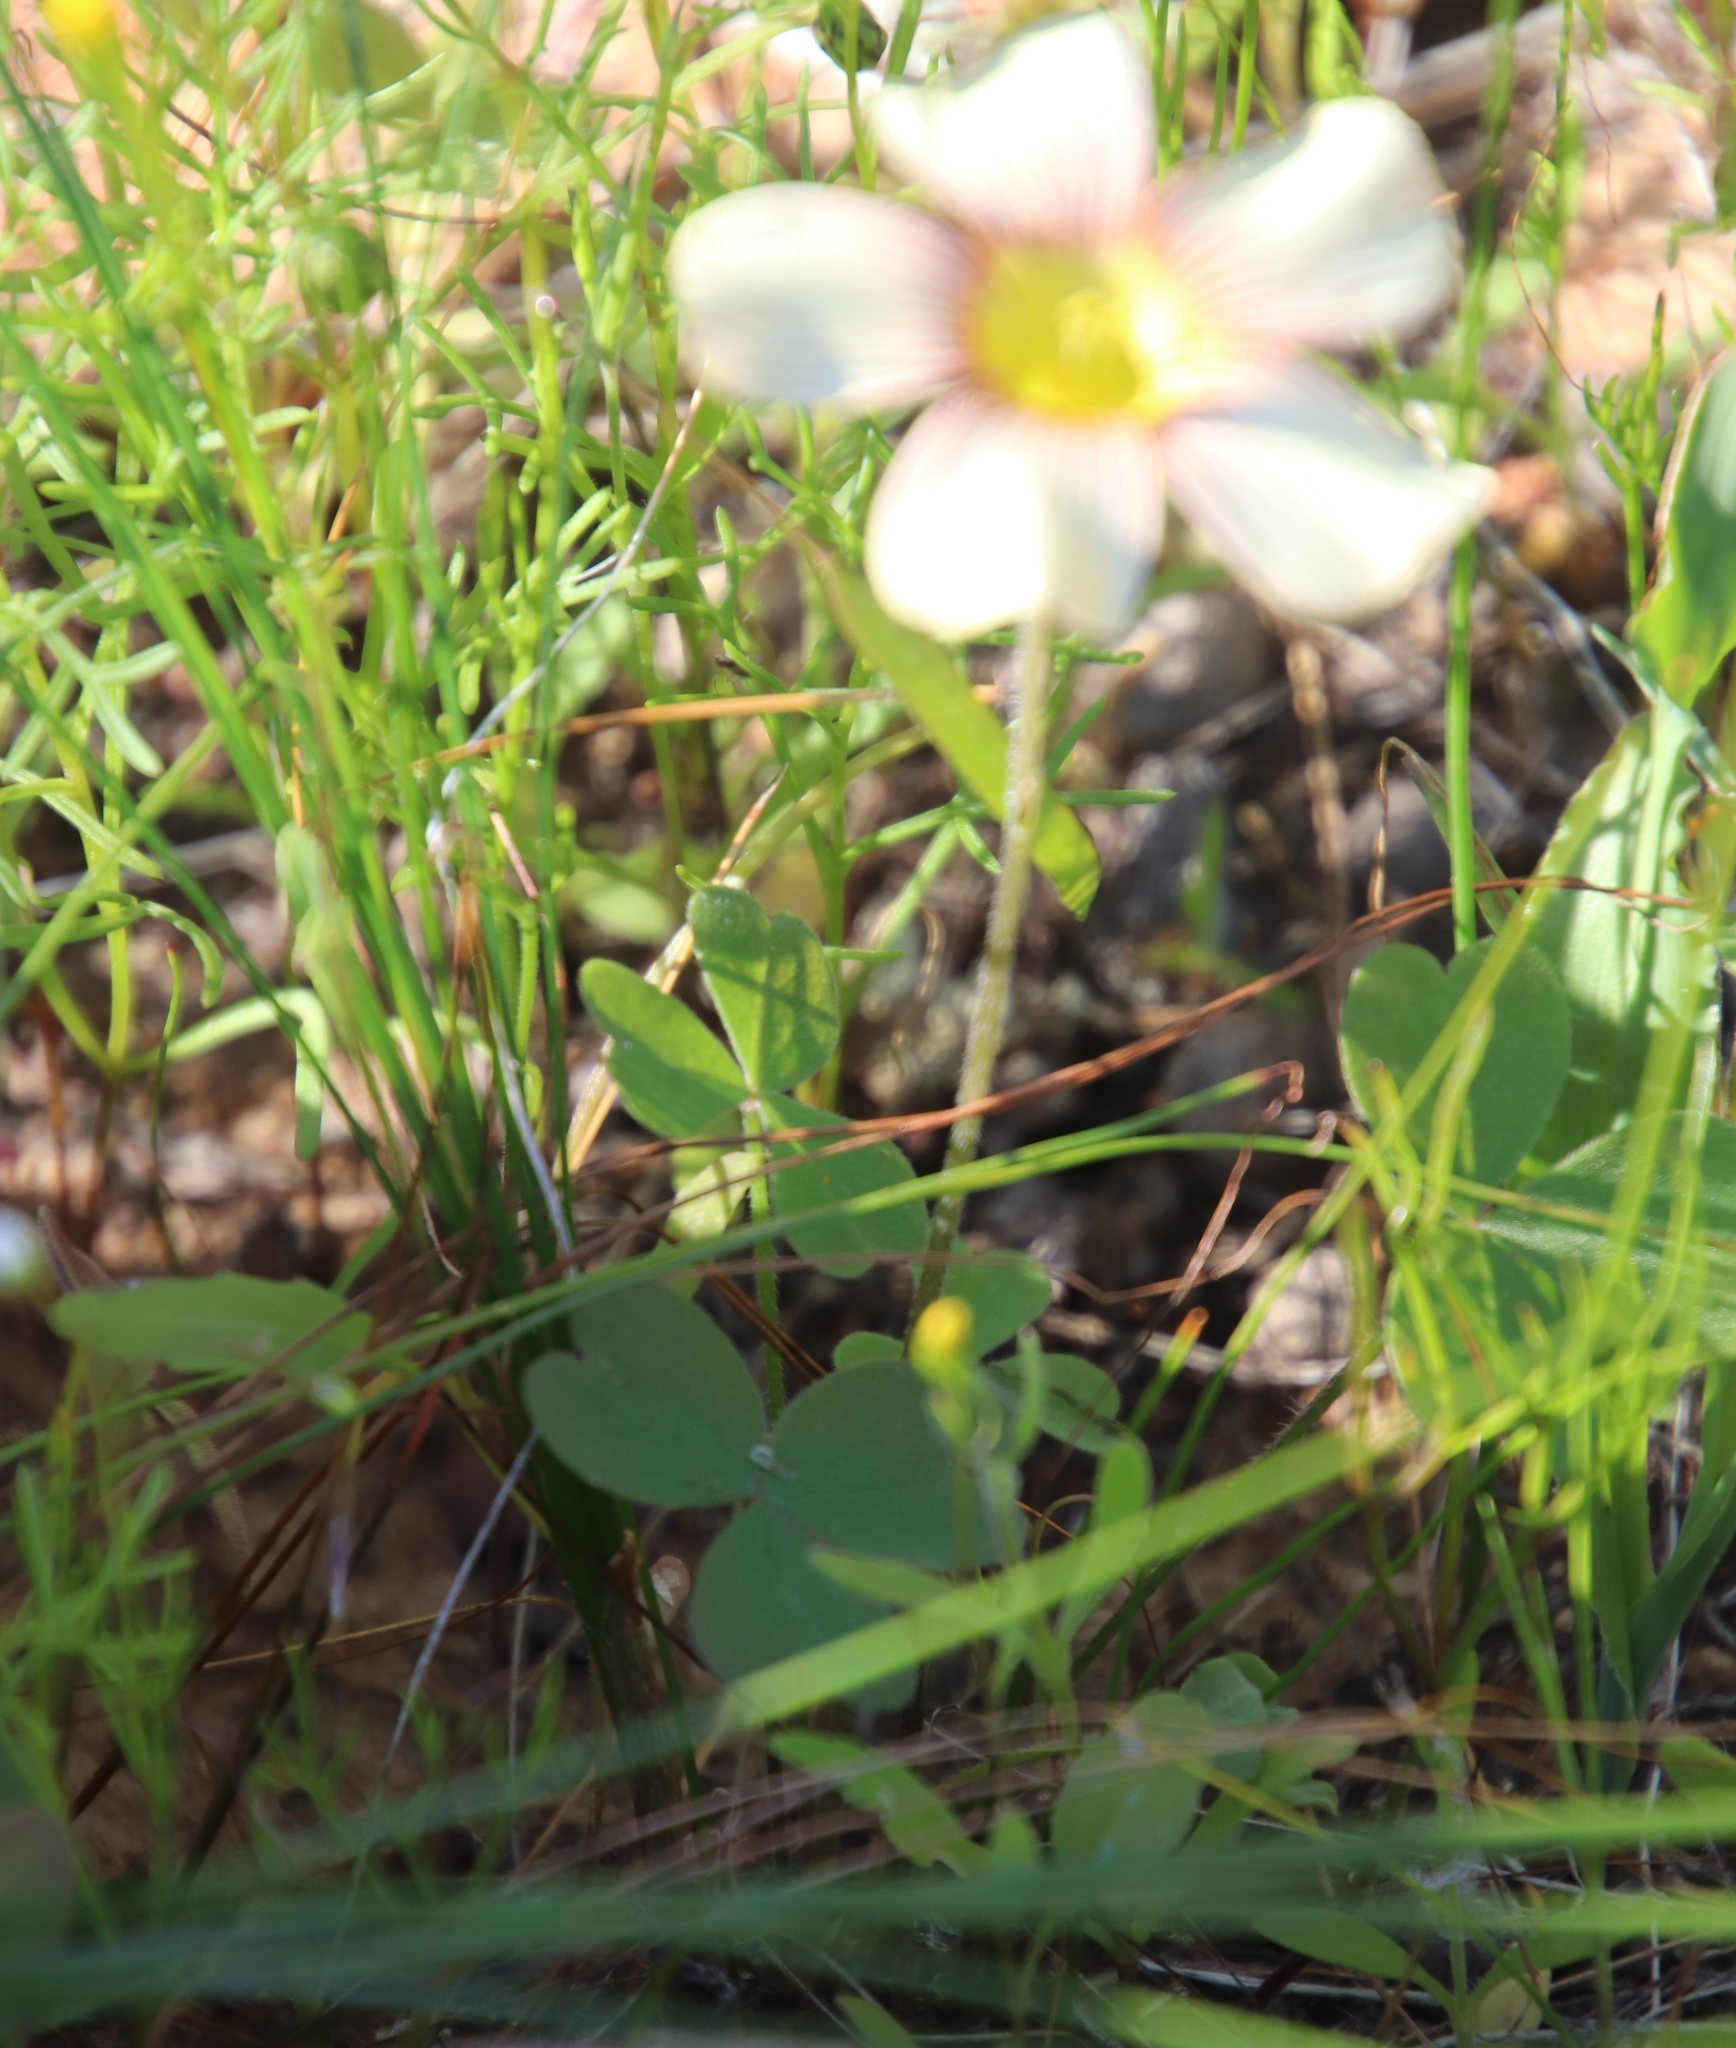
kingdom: Plantae
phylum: Tracheophyta
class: Magnoliopsida
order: Oxalidales
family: Oxalidaceae
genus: Oxalis
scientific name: Oxalis obtusa
